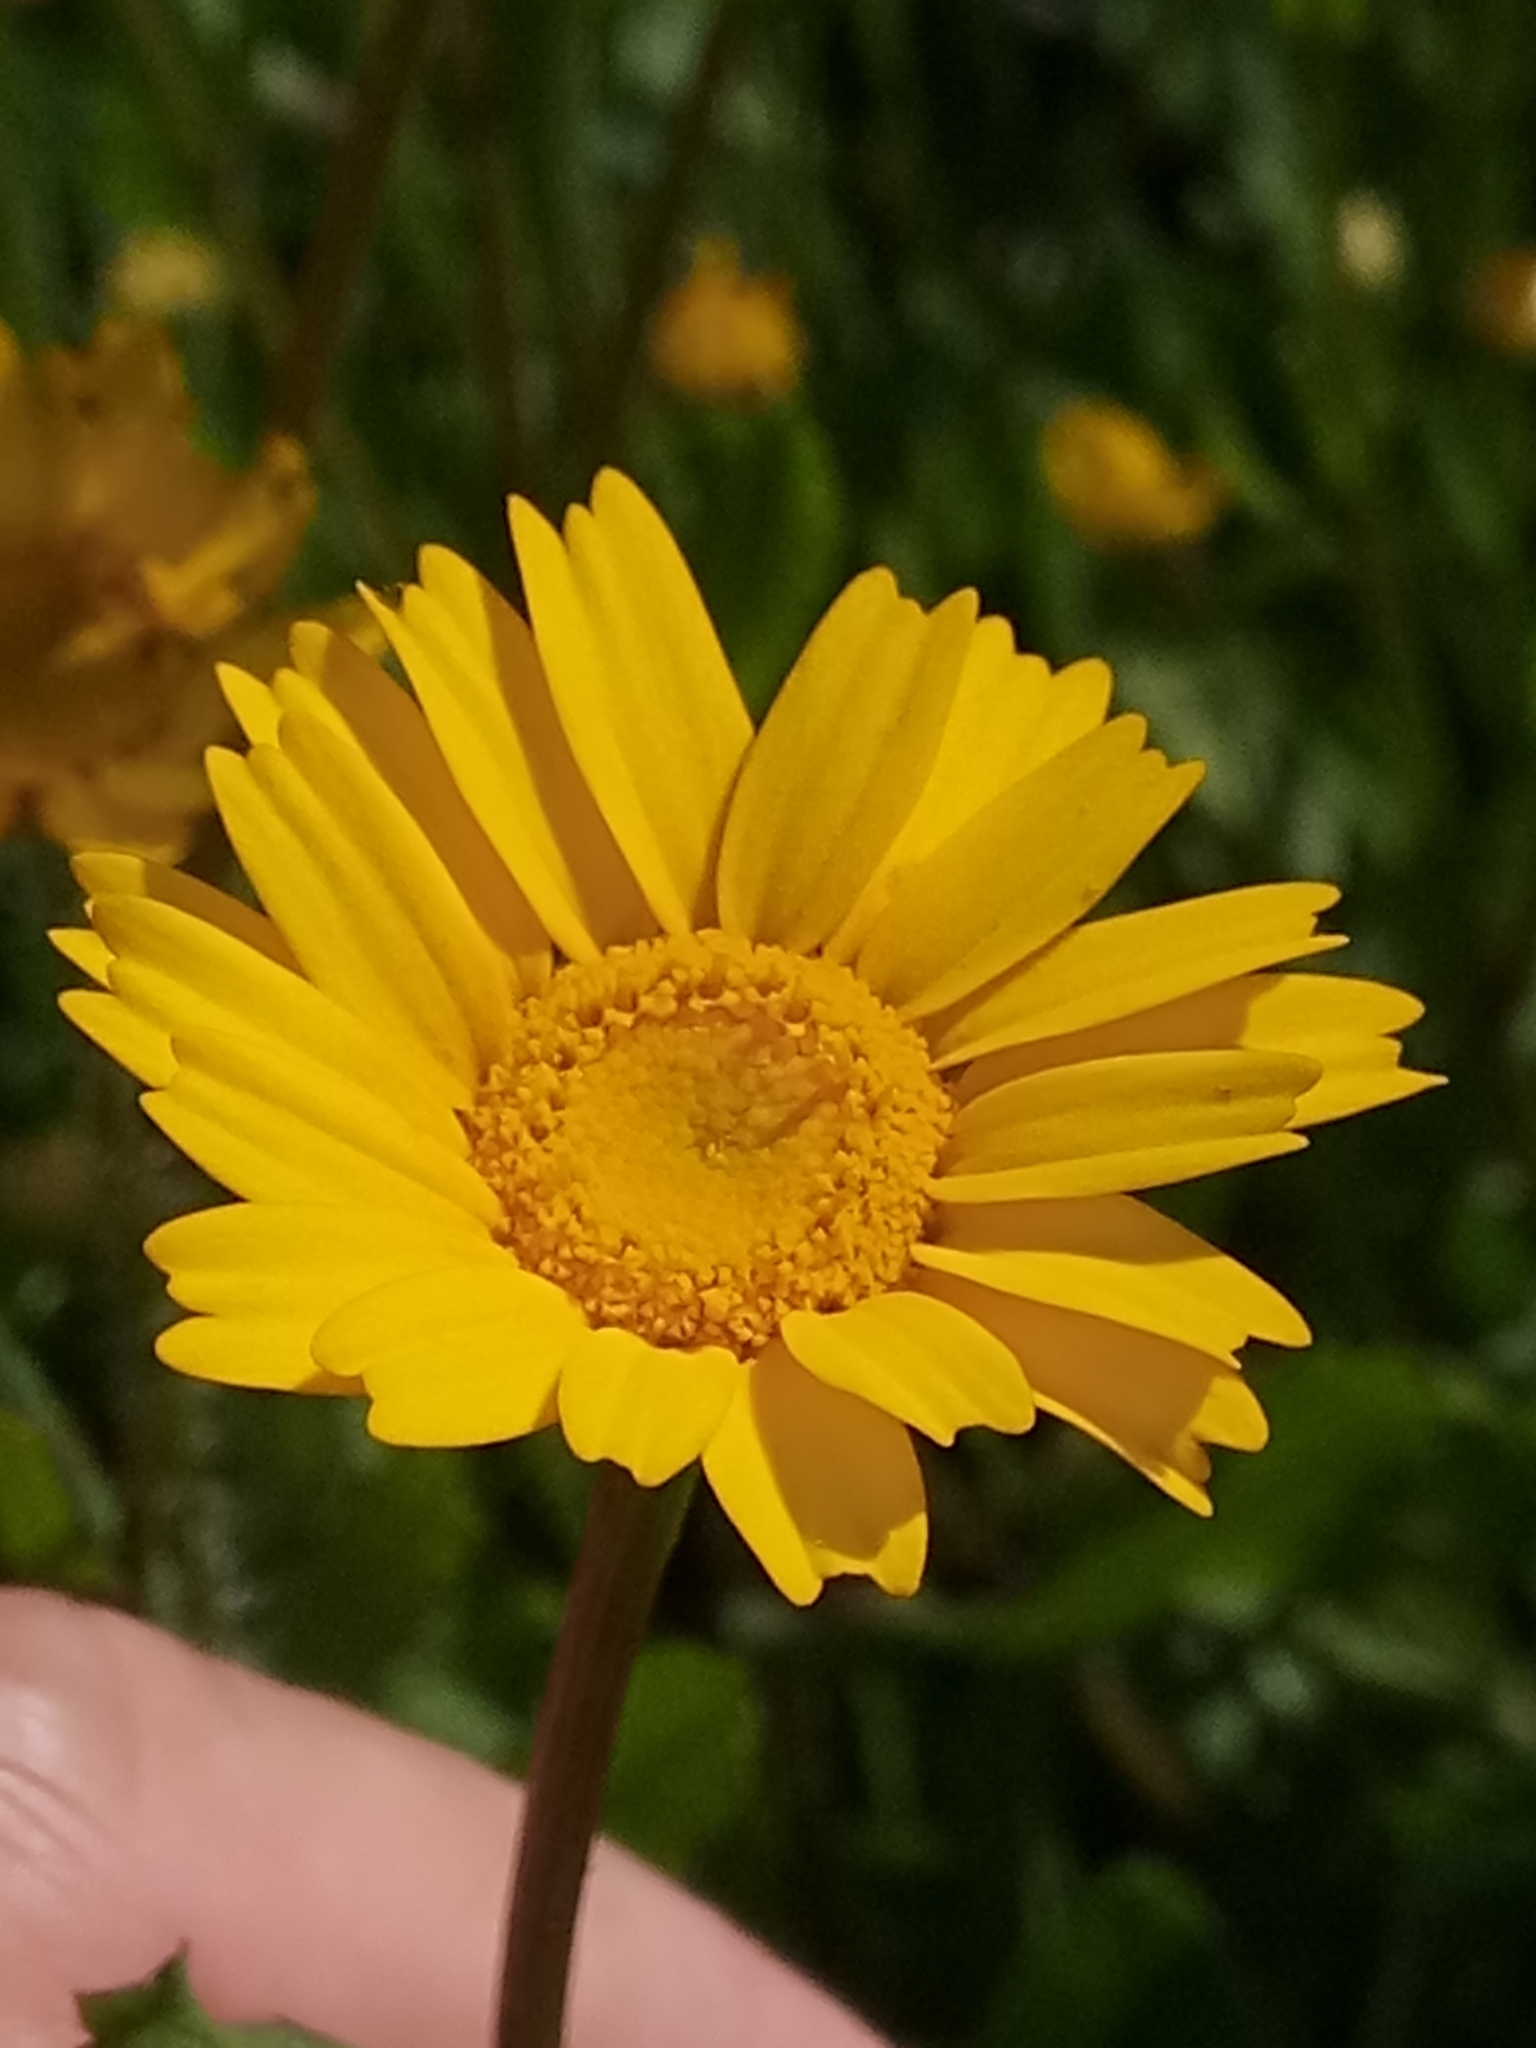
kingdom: Plantae
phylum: Tracheophyta
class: Magnoliopsida
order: Asterales
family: Asteraceae
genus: Coleostephus
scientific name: Coleostephus myconis
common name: Mediterranean marigold
